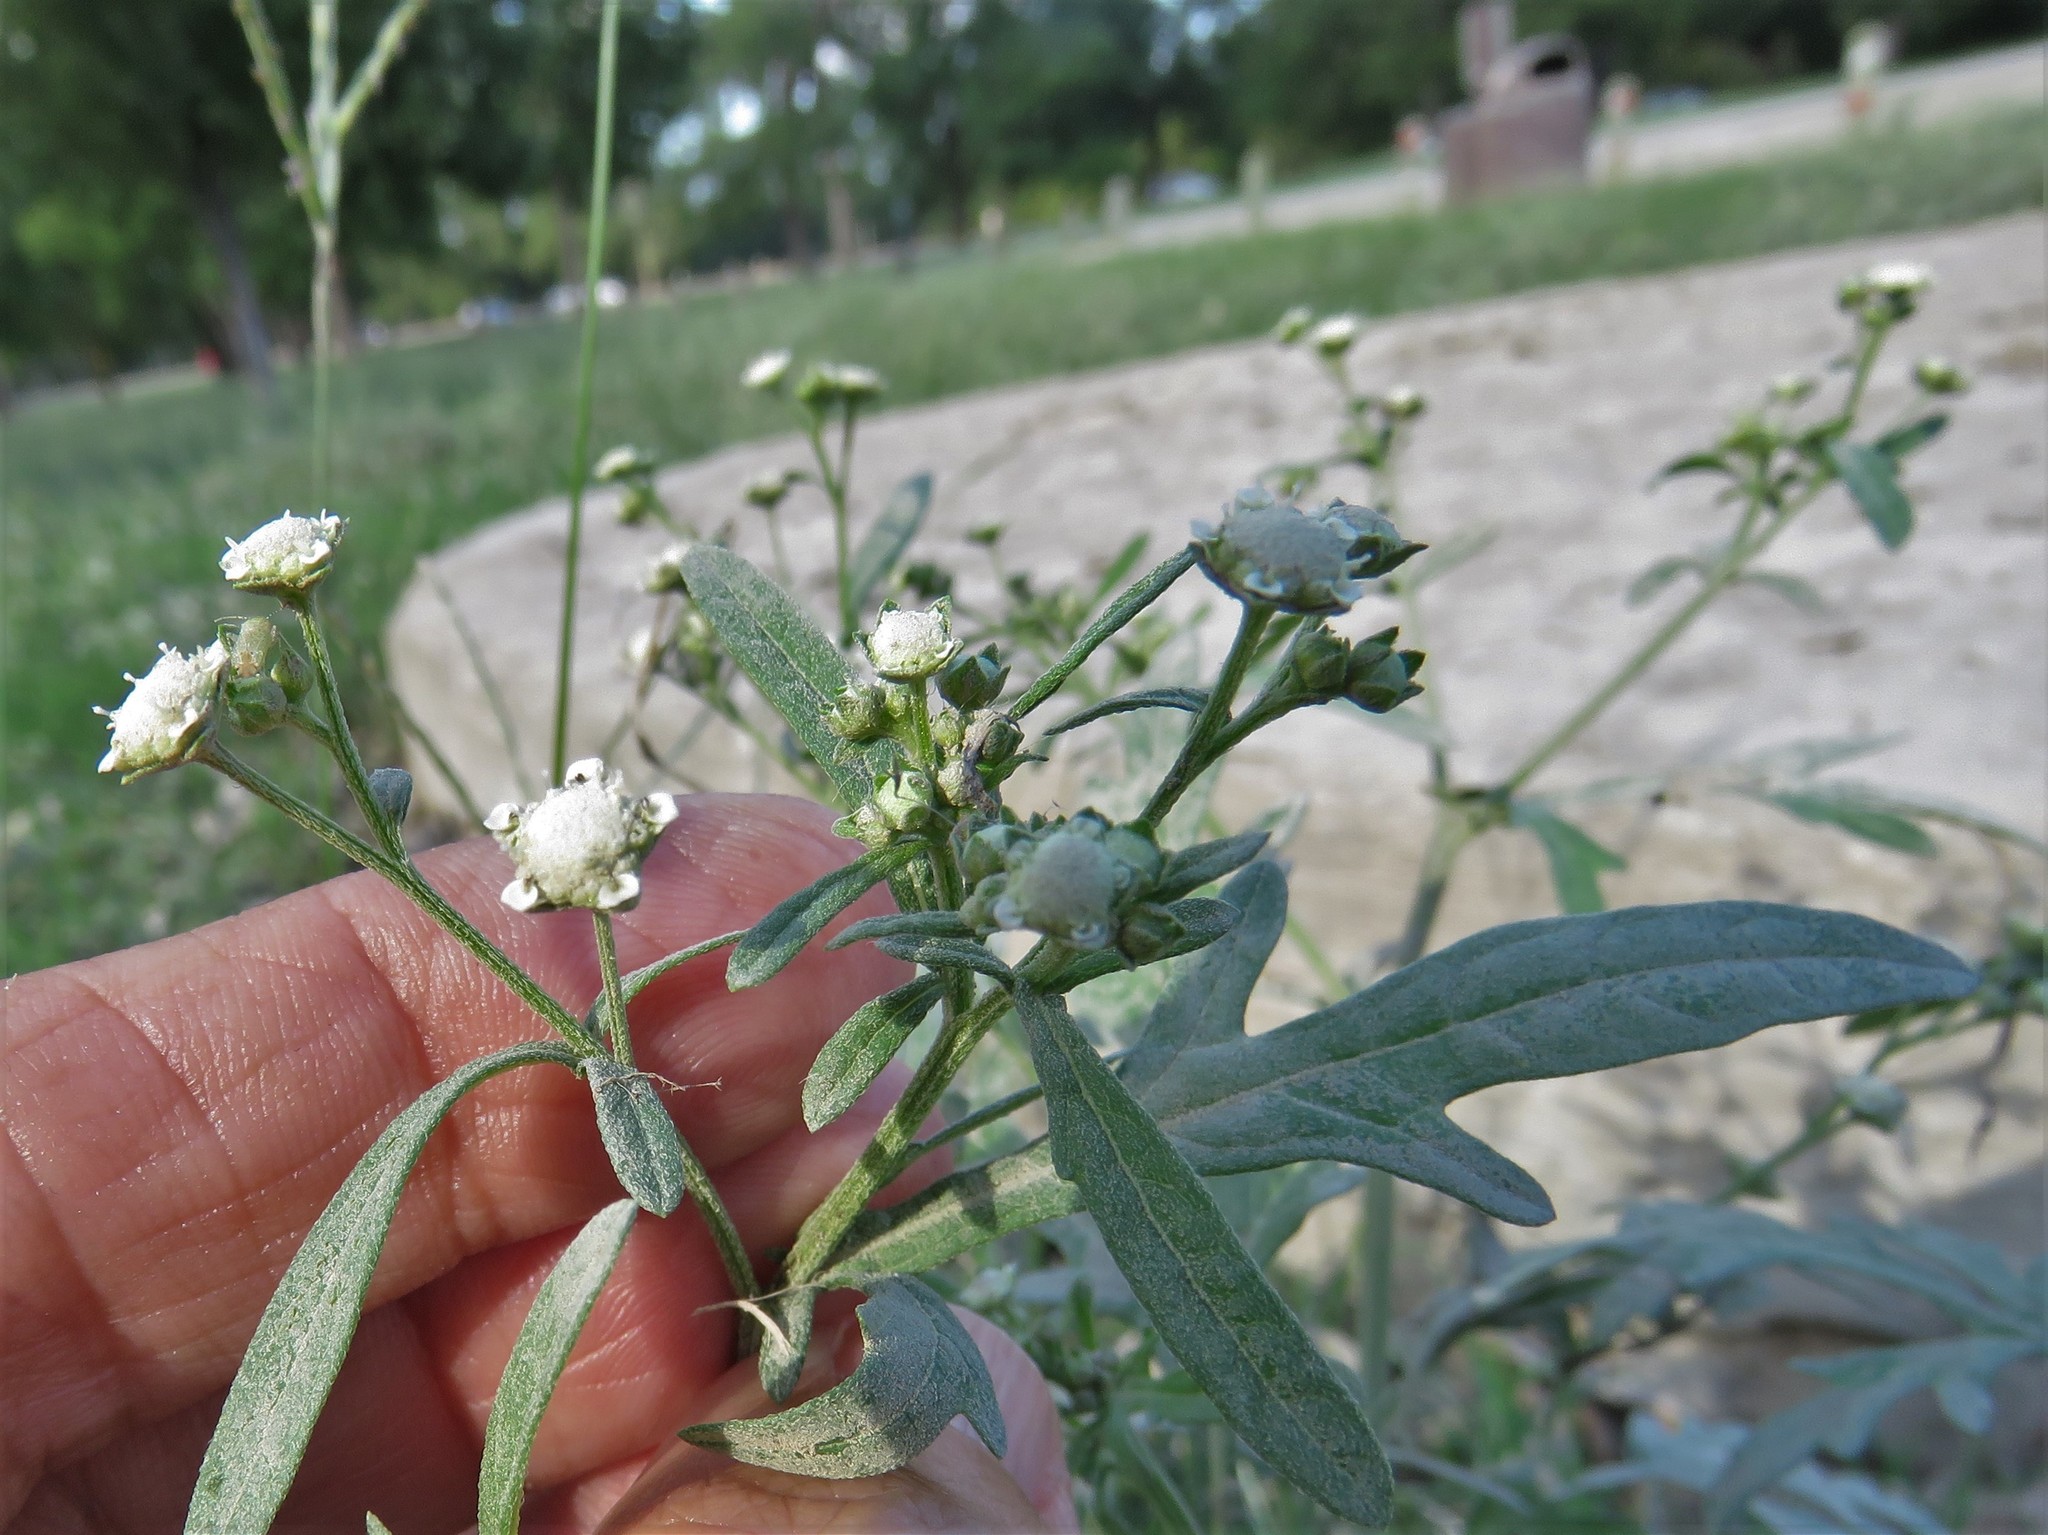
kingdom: Plantae
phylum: Tracheophyta
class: Magnoliopsida
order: Asterales
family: Asteraceae
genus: Parthenium
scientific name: Parthenium hysterophorus
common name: Santa maria feverfew
